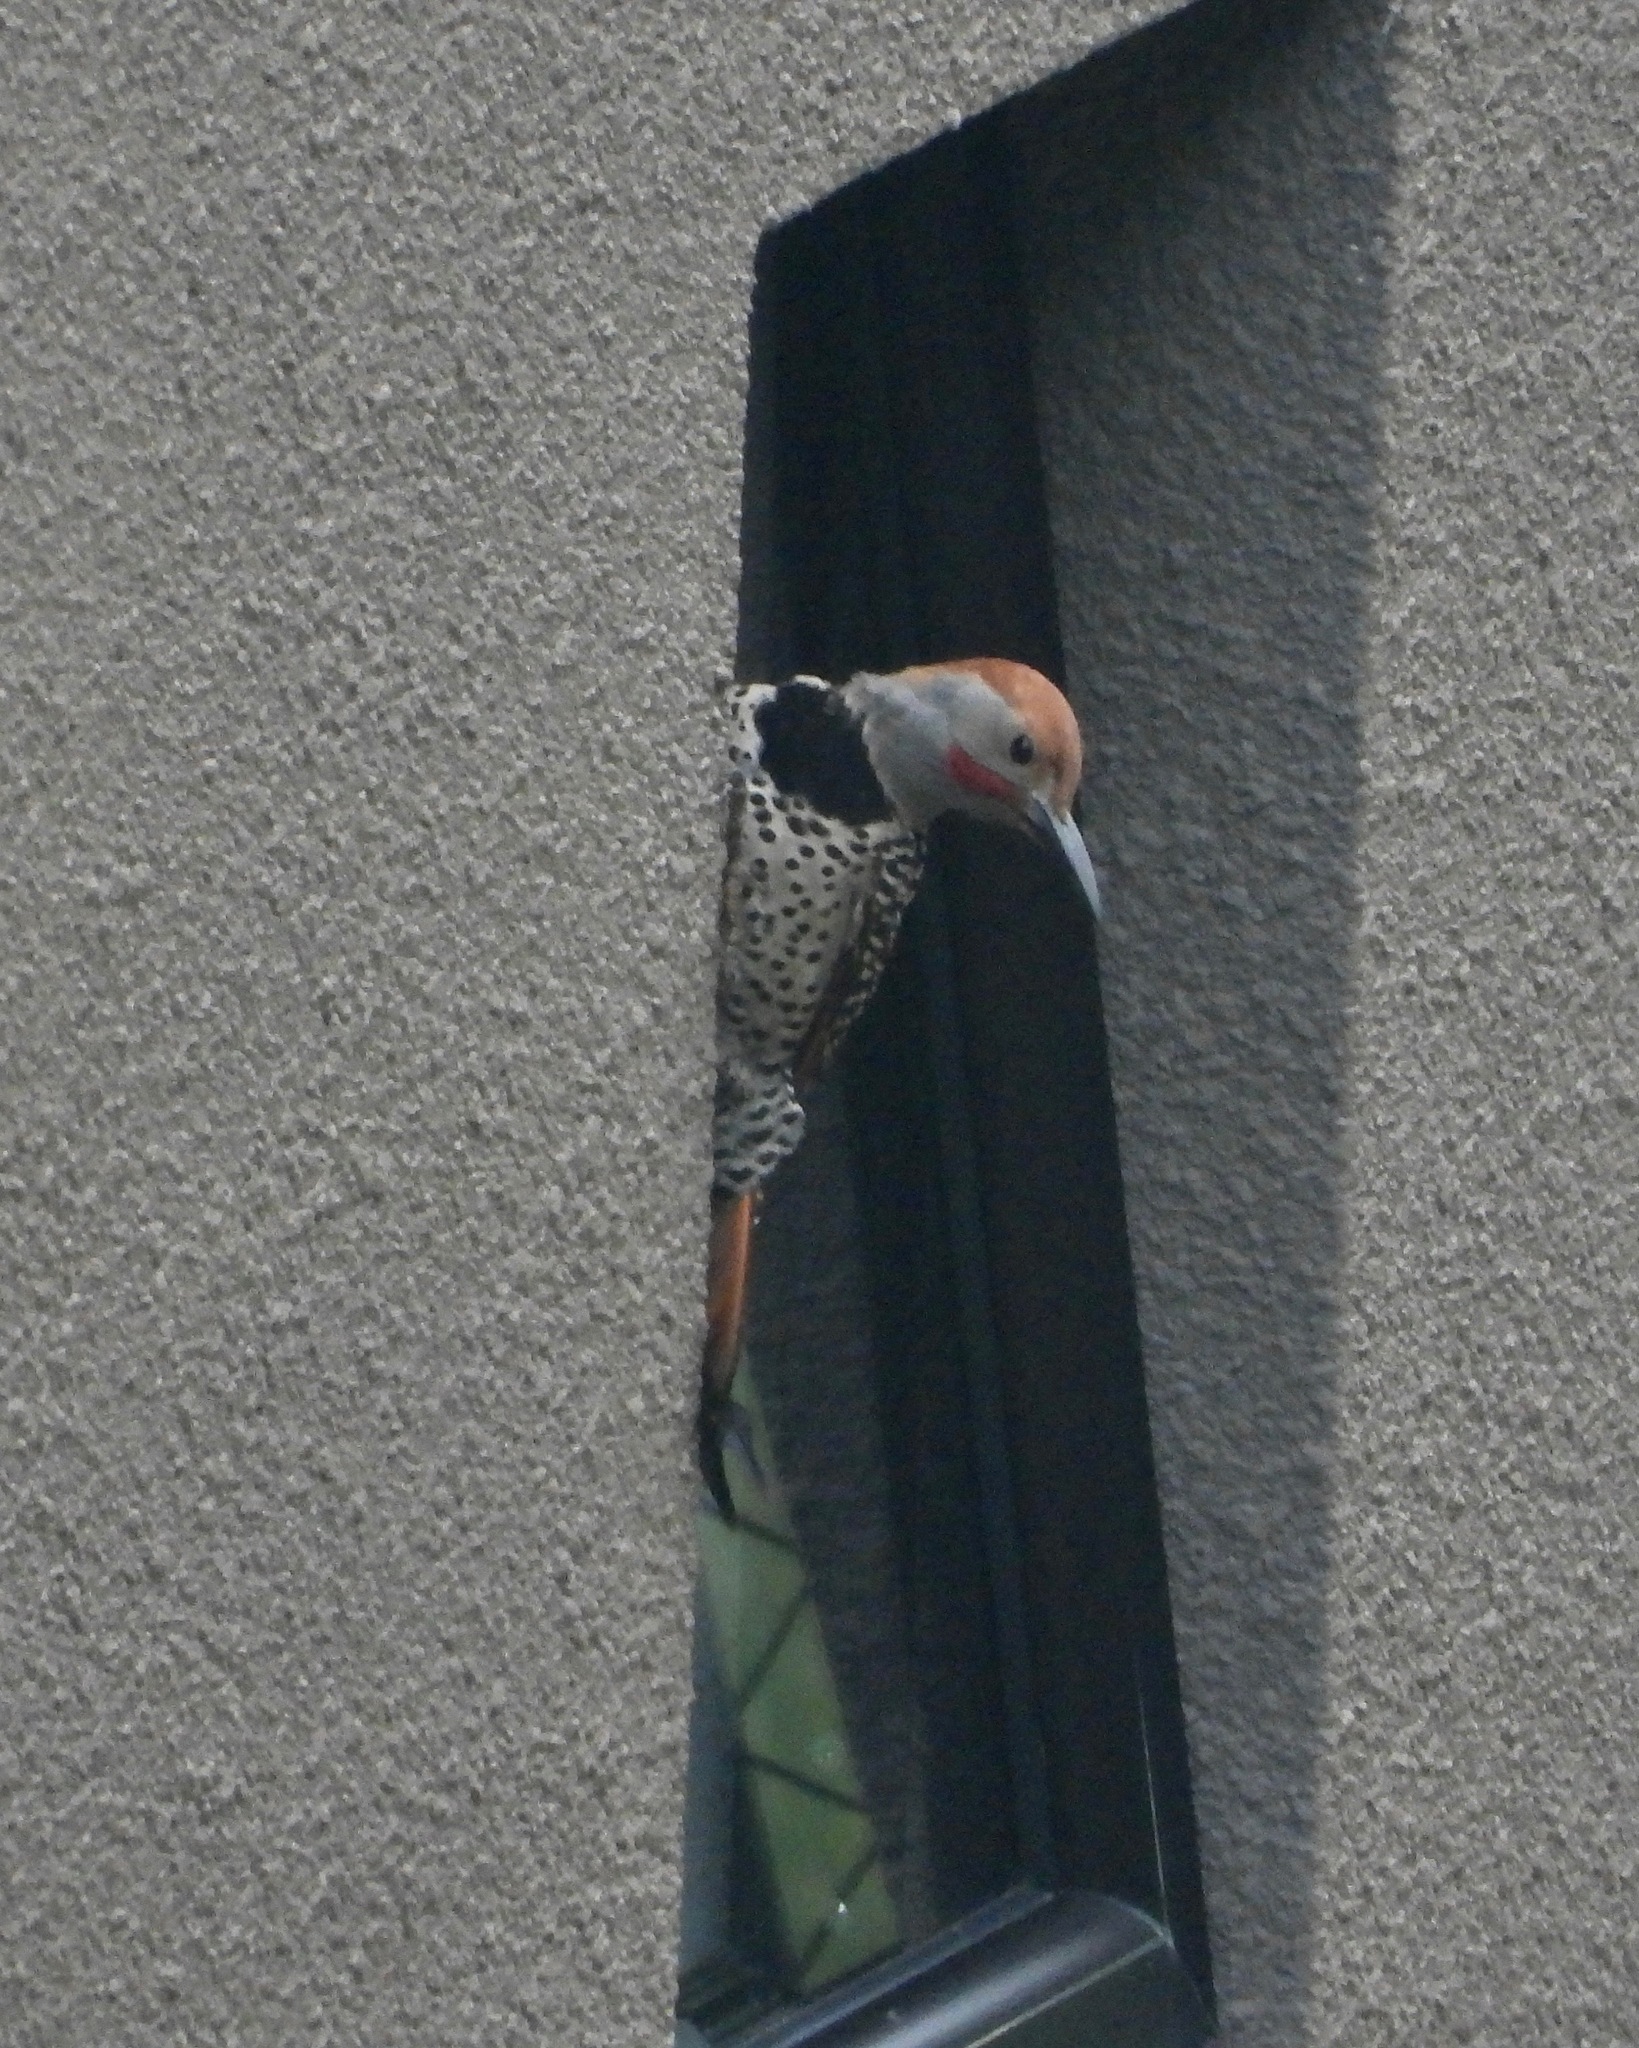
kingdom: Animalia
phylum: Chordata
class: Aves
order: Piciformes
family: Picidae
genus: Colaptes
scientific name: Colaptes auratus
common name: Northern flicker
